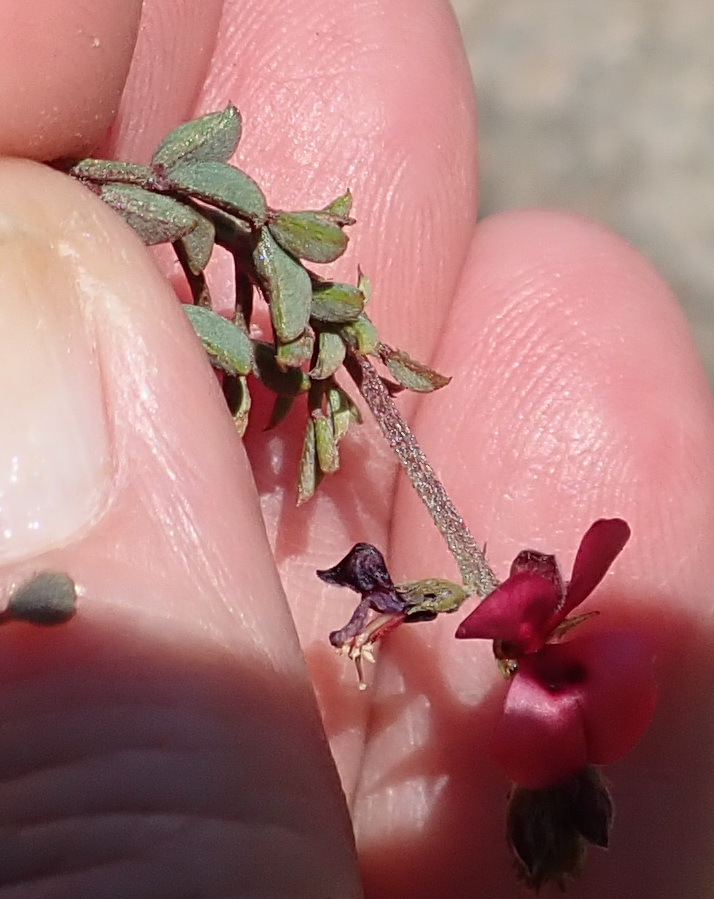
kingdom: Plantae
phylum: Tracheophyta
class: Magnoliopsida
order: Fabales
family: Fabaceae
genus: Indigofera
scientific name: Indigofera heterophylla
